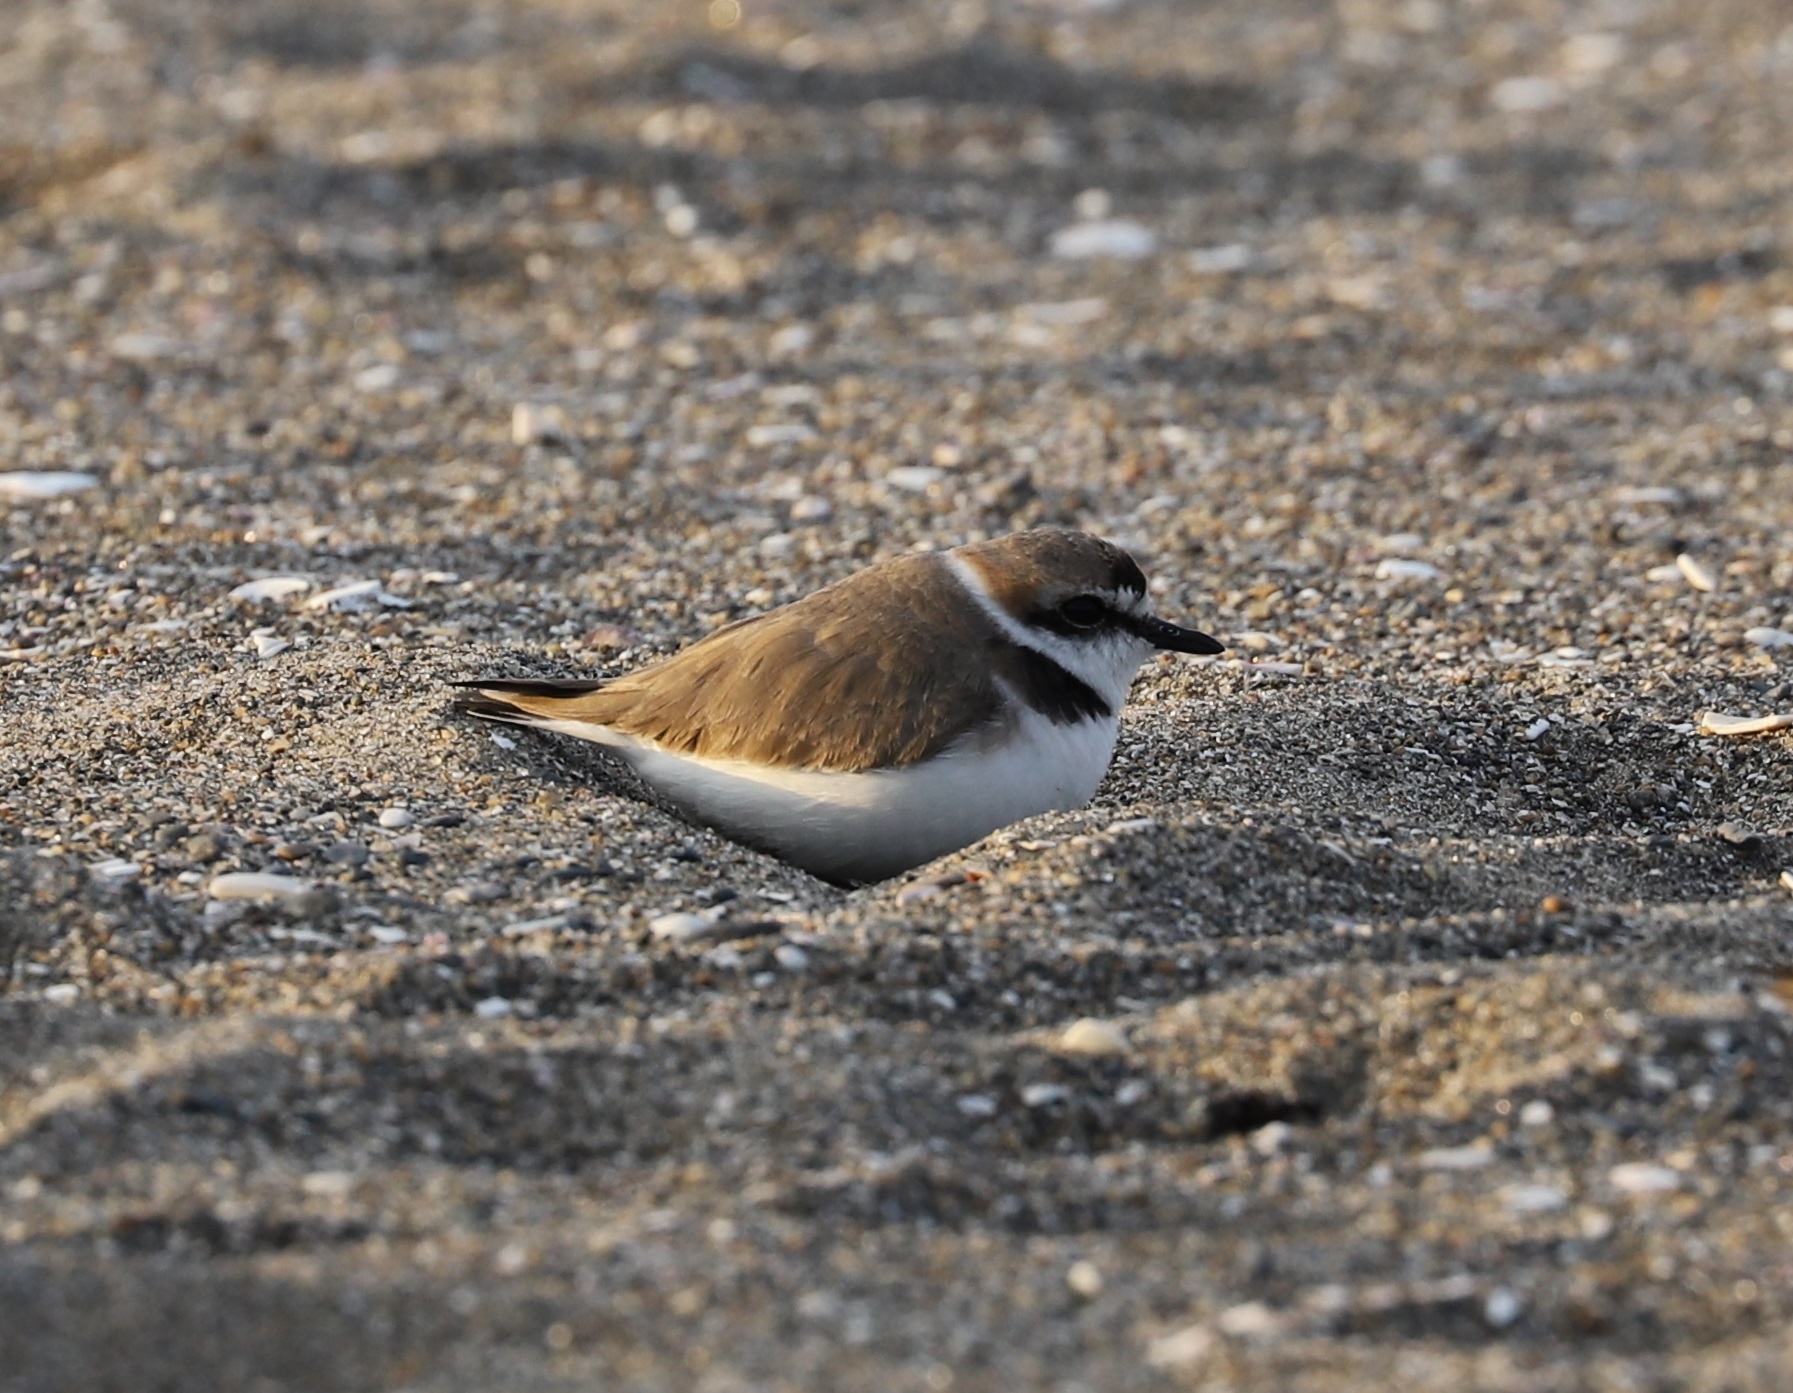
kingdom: Animalia
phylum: Chordata
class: Aves
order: Charadriiformes
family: Charadriidae
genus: Charadrius
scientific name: Charadrius alexandrinus
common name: Kentish plover
